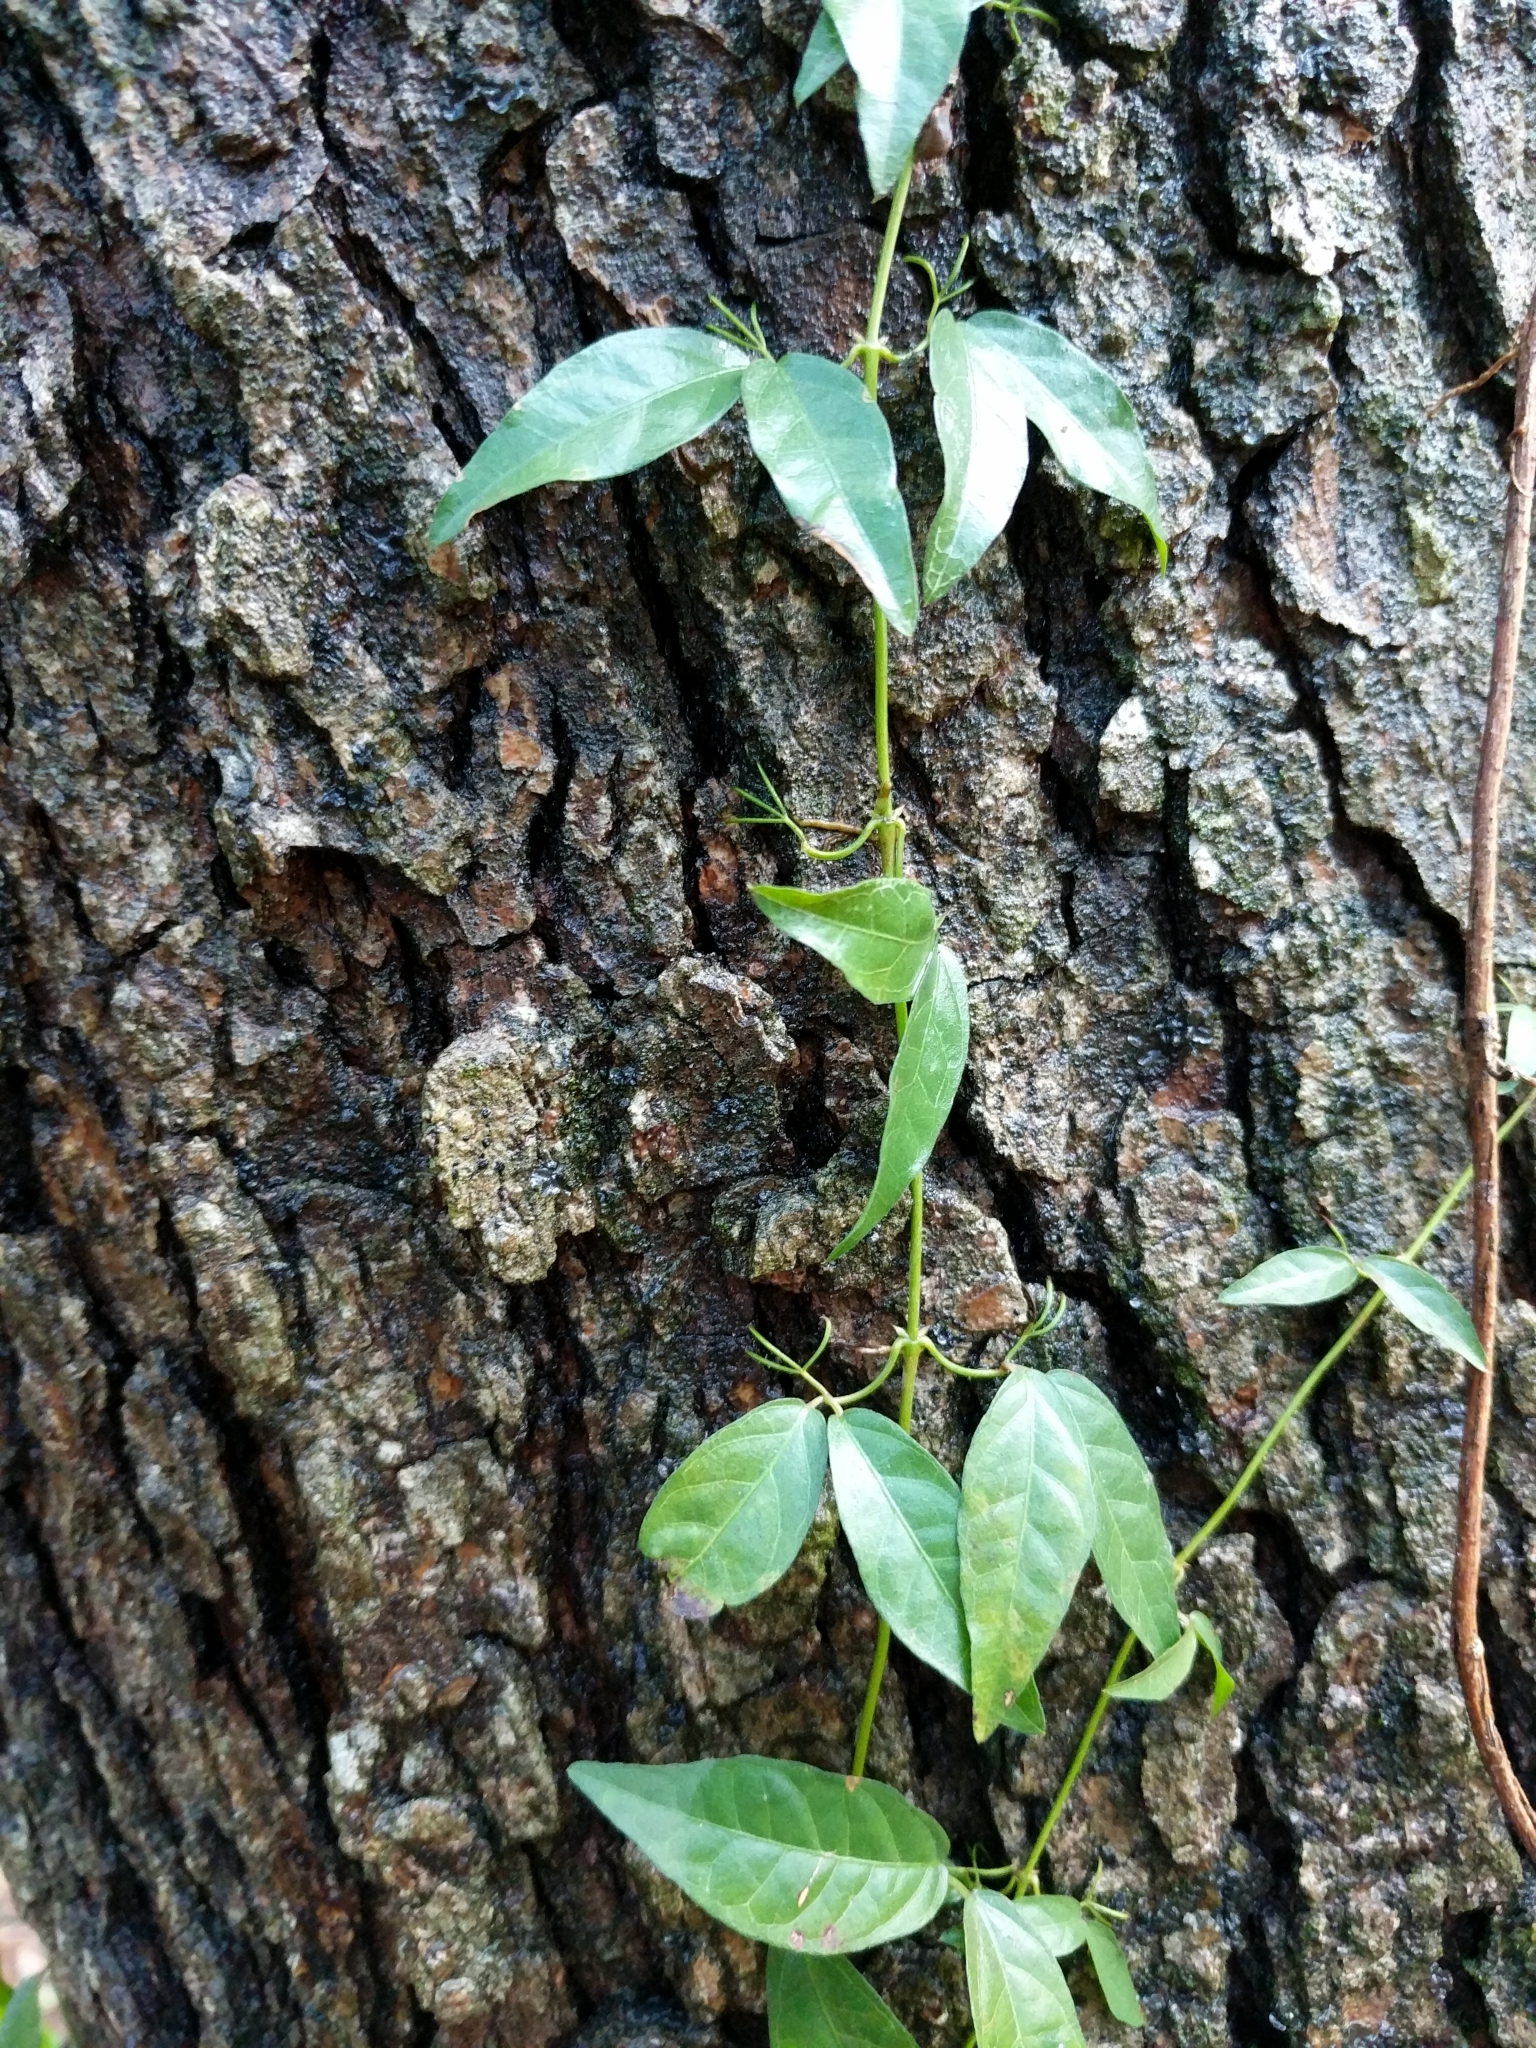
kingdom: Plantae
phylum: Tracheophyta
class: Magnoliopsida
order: Lamiales
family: Bignoniaceae
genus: Dolichandra
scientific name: Dolichandra unguis-cati
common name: Catclaw vine
